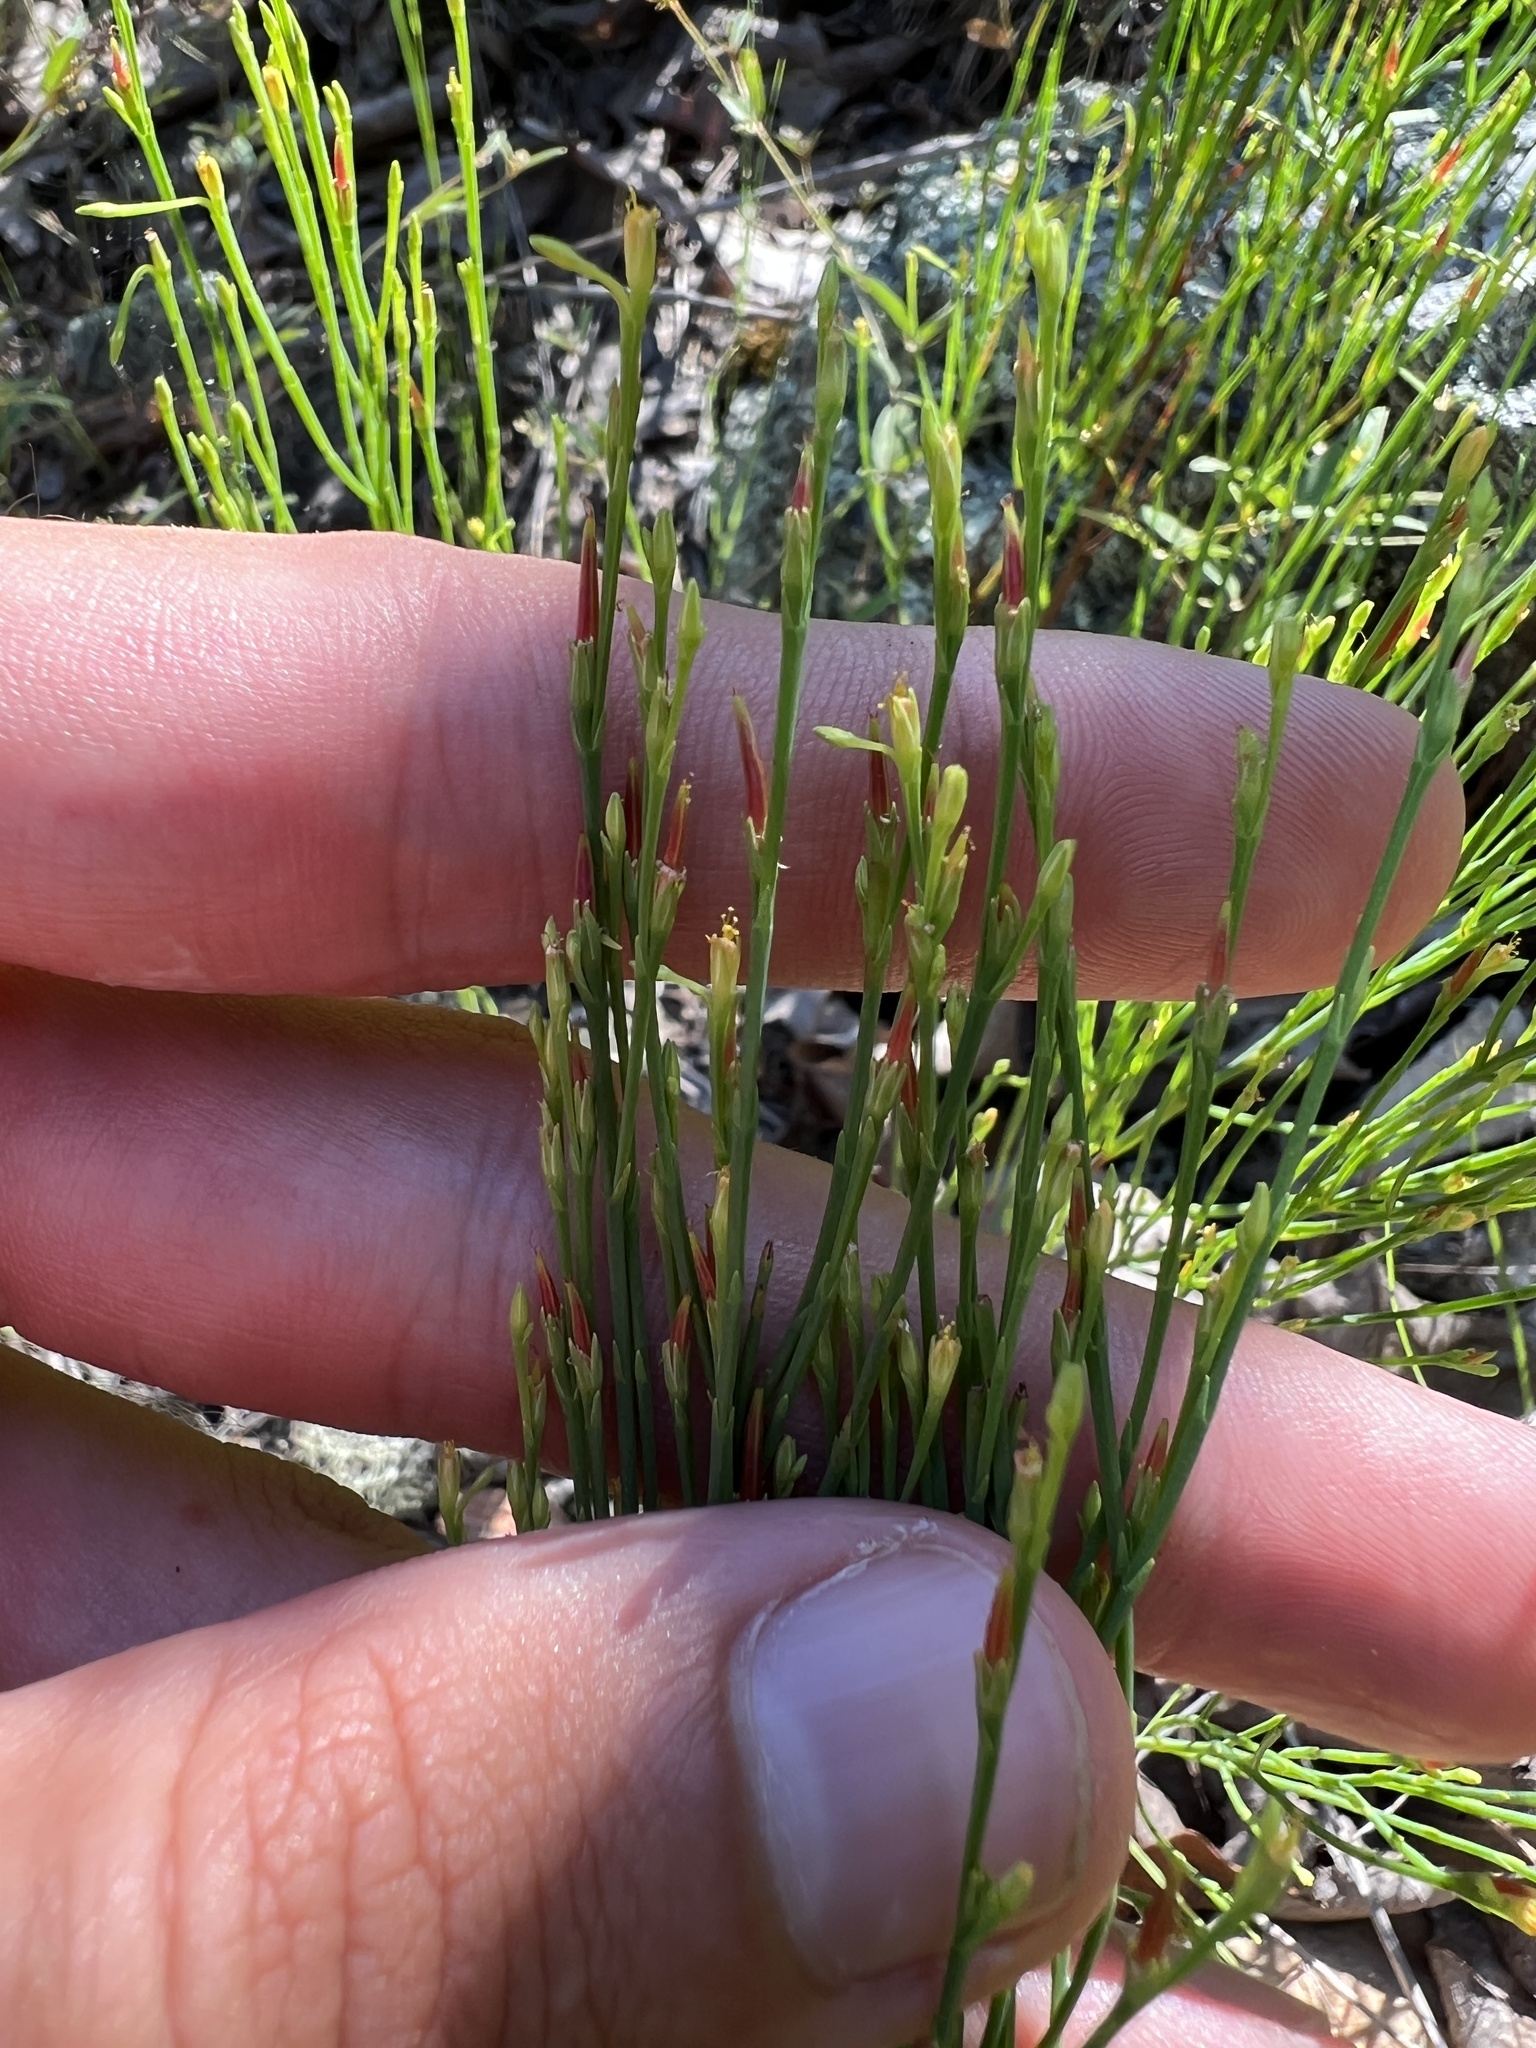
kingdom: Plantae
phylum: Tracheophyta
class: Magnoliopsida
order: Malpighiales
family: Hypericaceae
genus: Hypericum
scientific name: Hypericum gentianoides
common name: Gentian-leaved st. john's-wort
